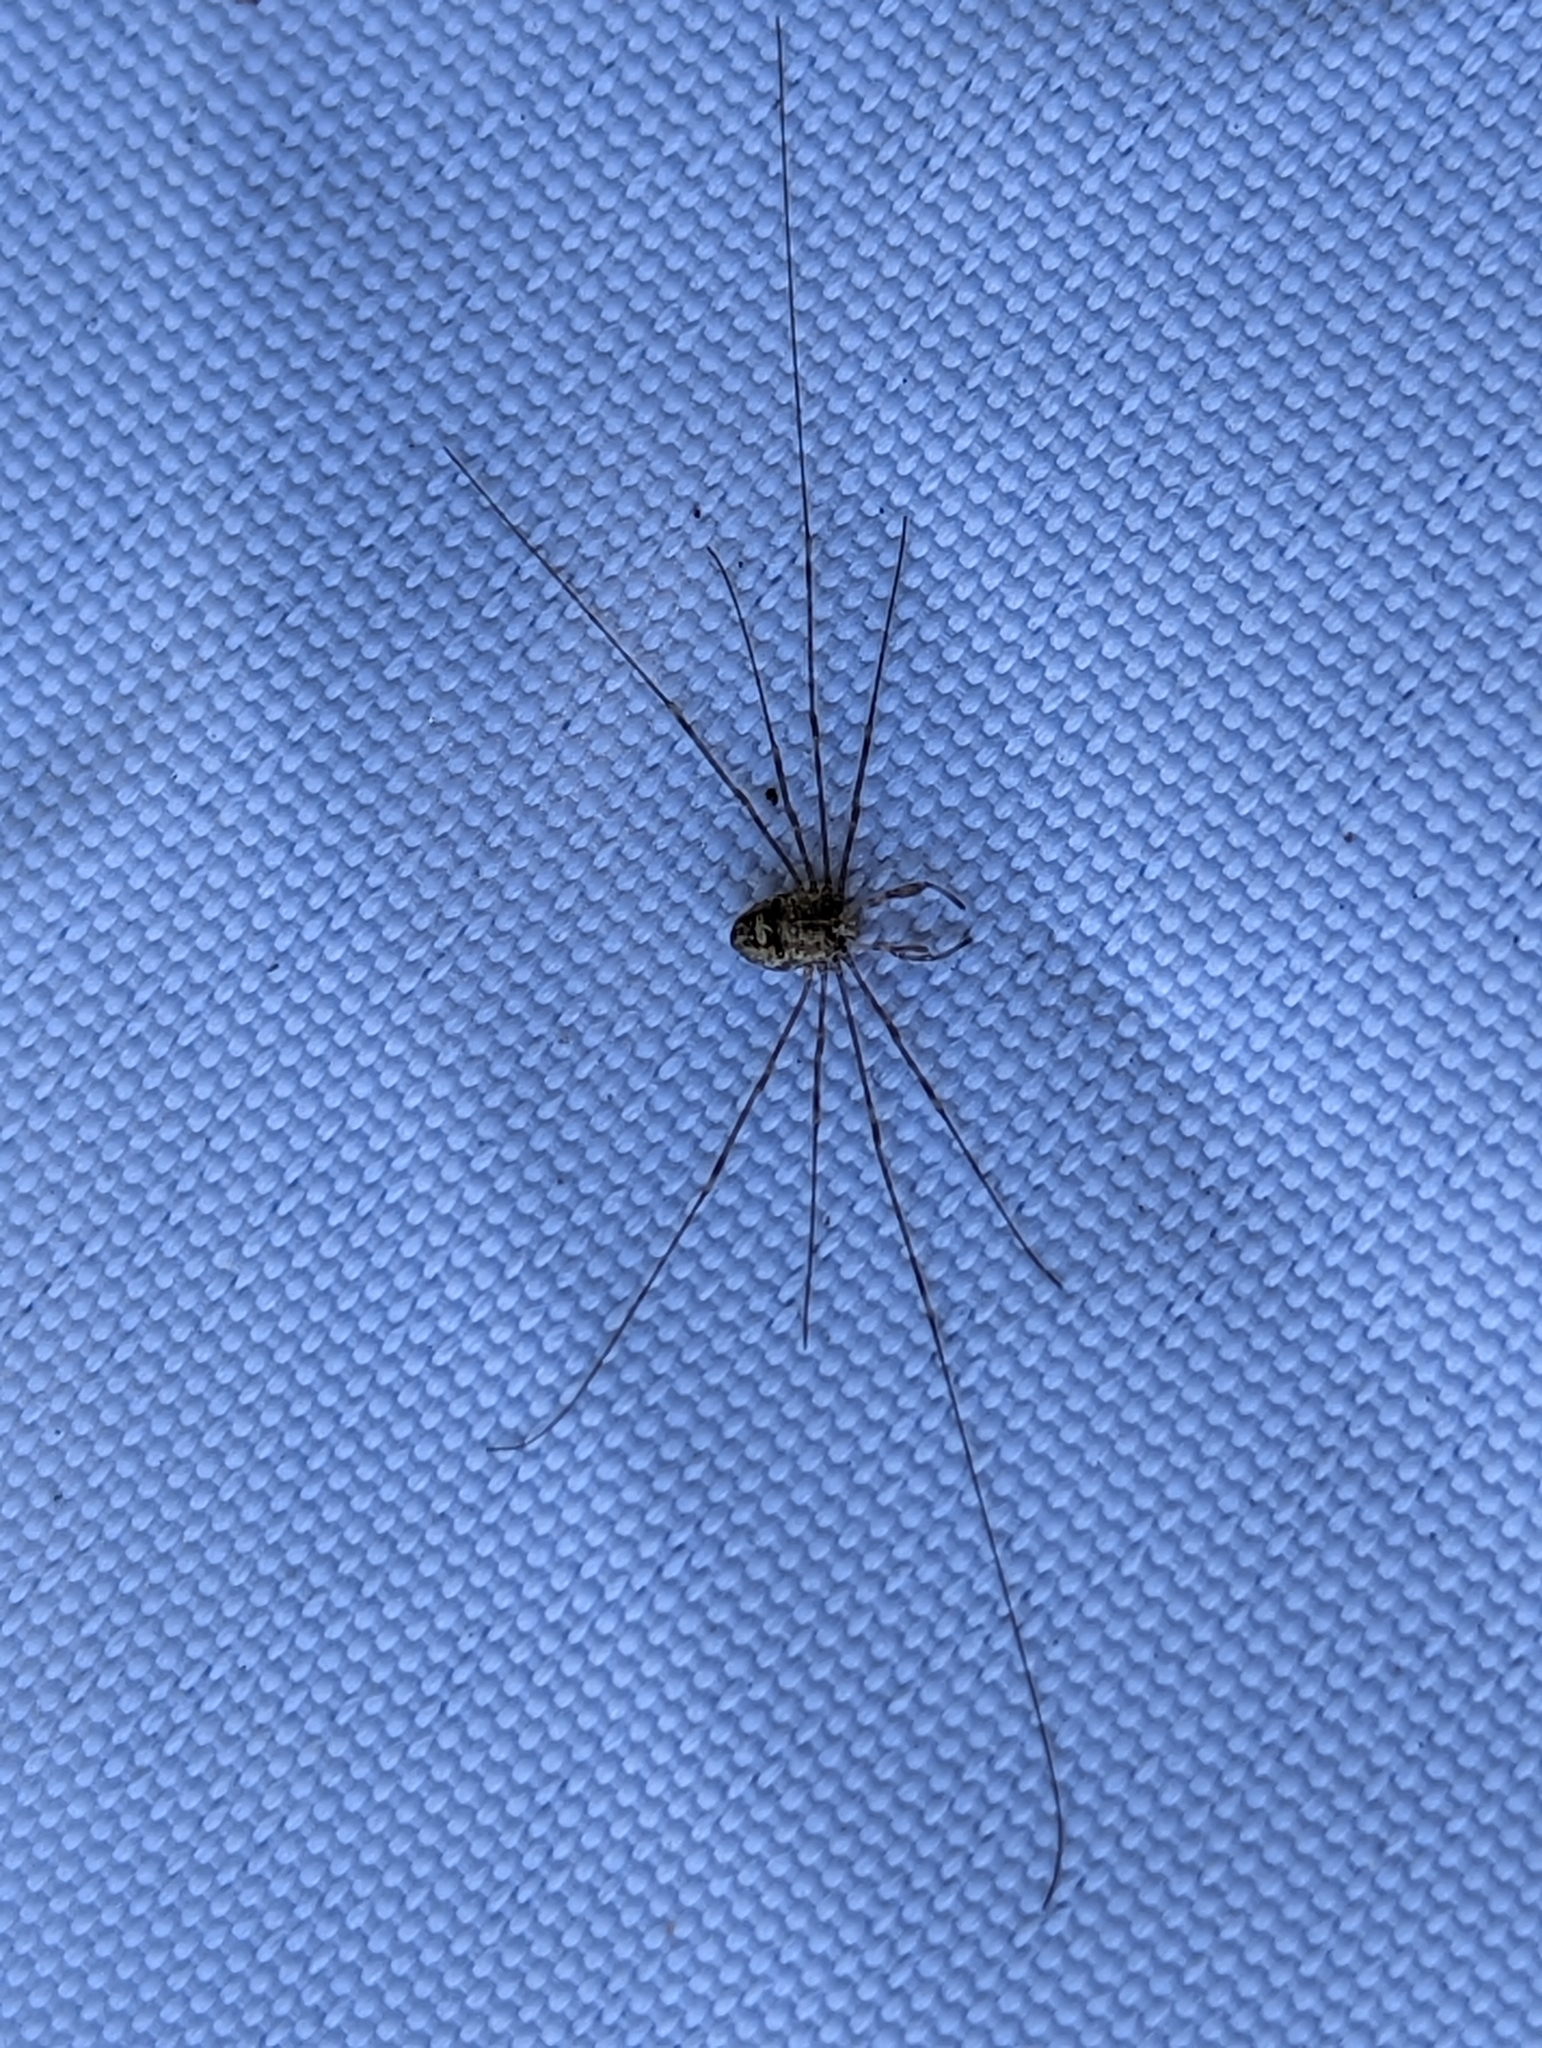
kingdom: Animalia
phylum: Arthropoda
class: Arachnida
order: Opiliones
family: Phalangiidae
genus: Dicranopalpus
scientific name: Dicranopalpus ramosus
